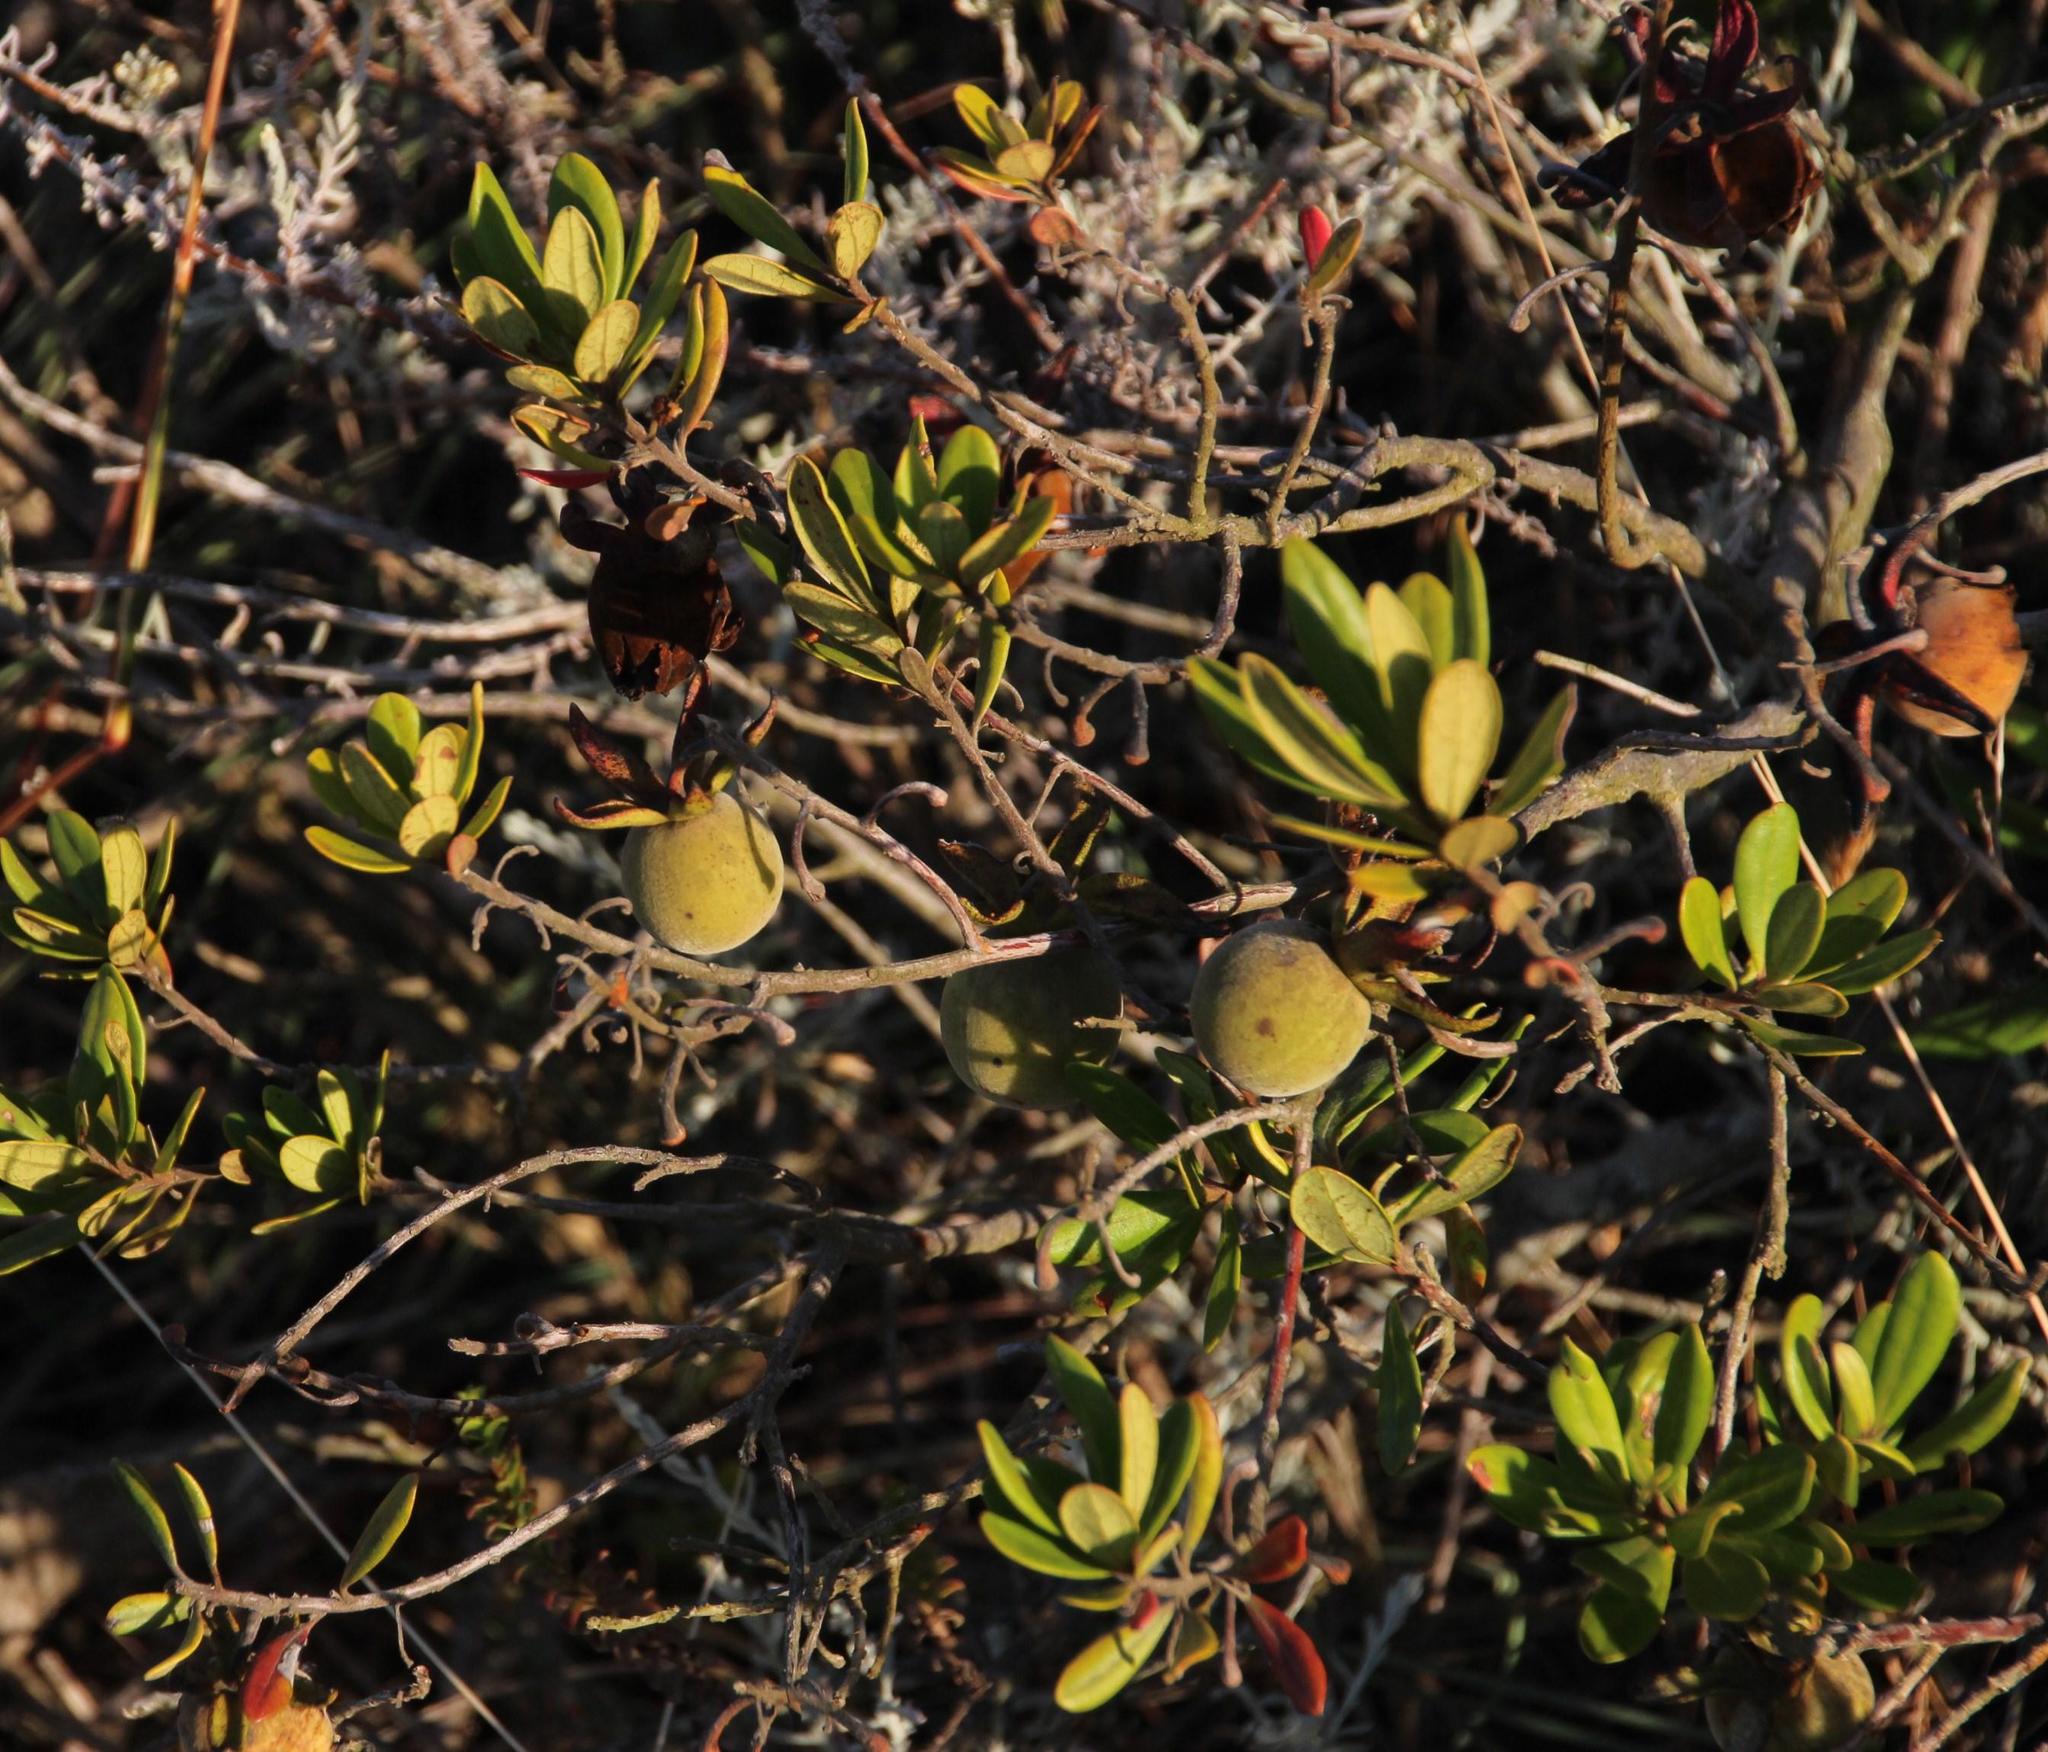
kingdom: Plantae
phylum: Tracheophyta
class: Magnoliopsida
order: Ericales
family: Ebenaceae
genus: Diospyros
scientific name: Diospyros dichrophylla
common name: Common star-apple
